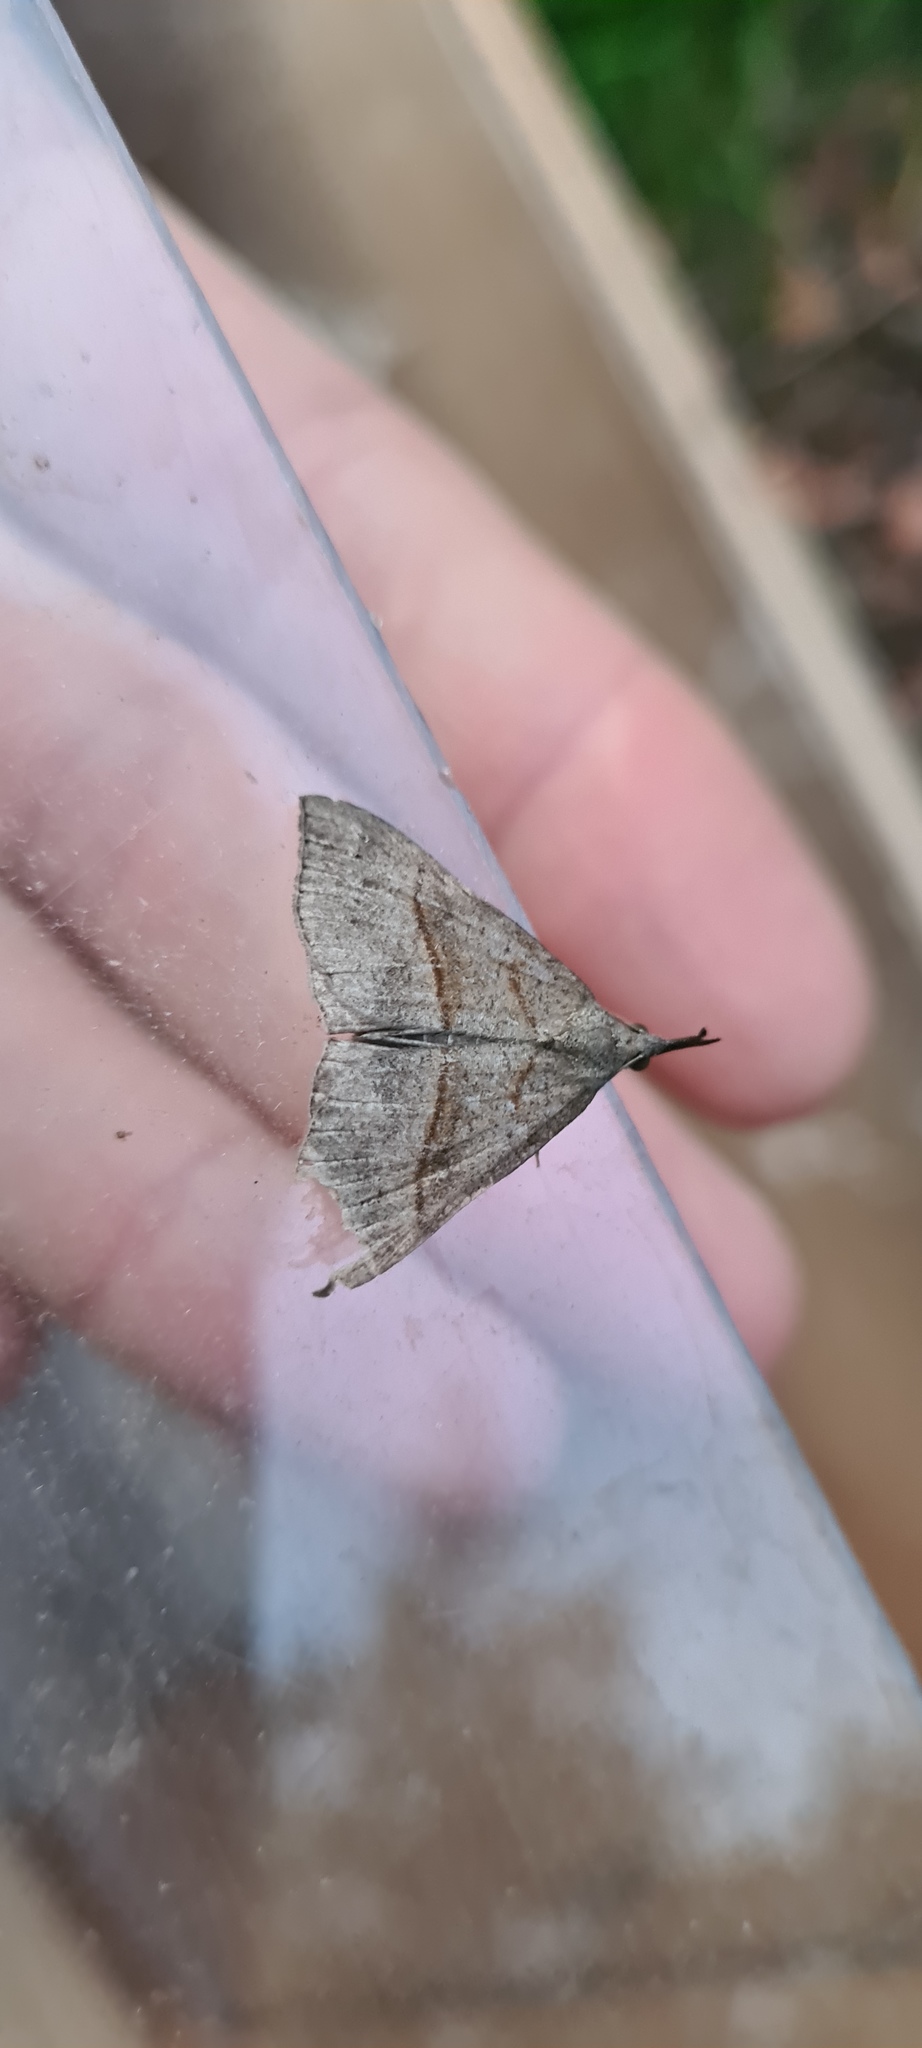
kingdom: Animalia
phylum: Arthropoda
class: Insecta
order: Lepidoptera
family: Erebidae
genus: Hypena
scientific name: Hypena proboscidalis
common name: Snout
